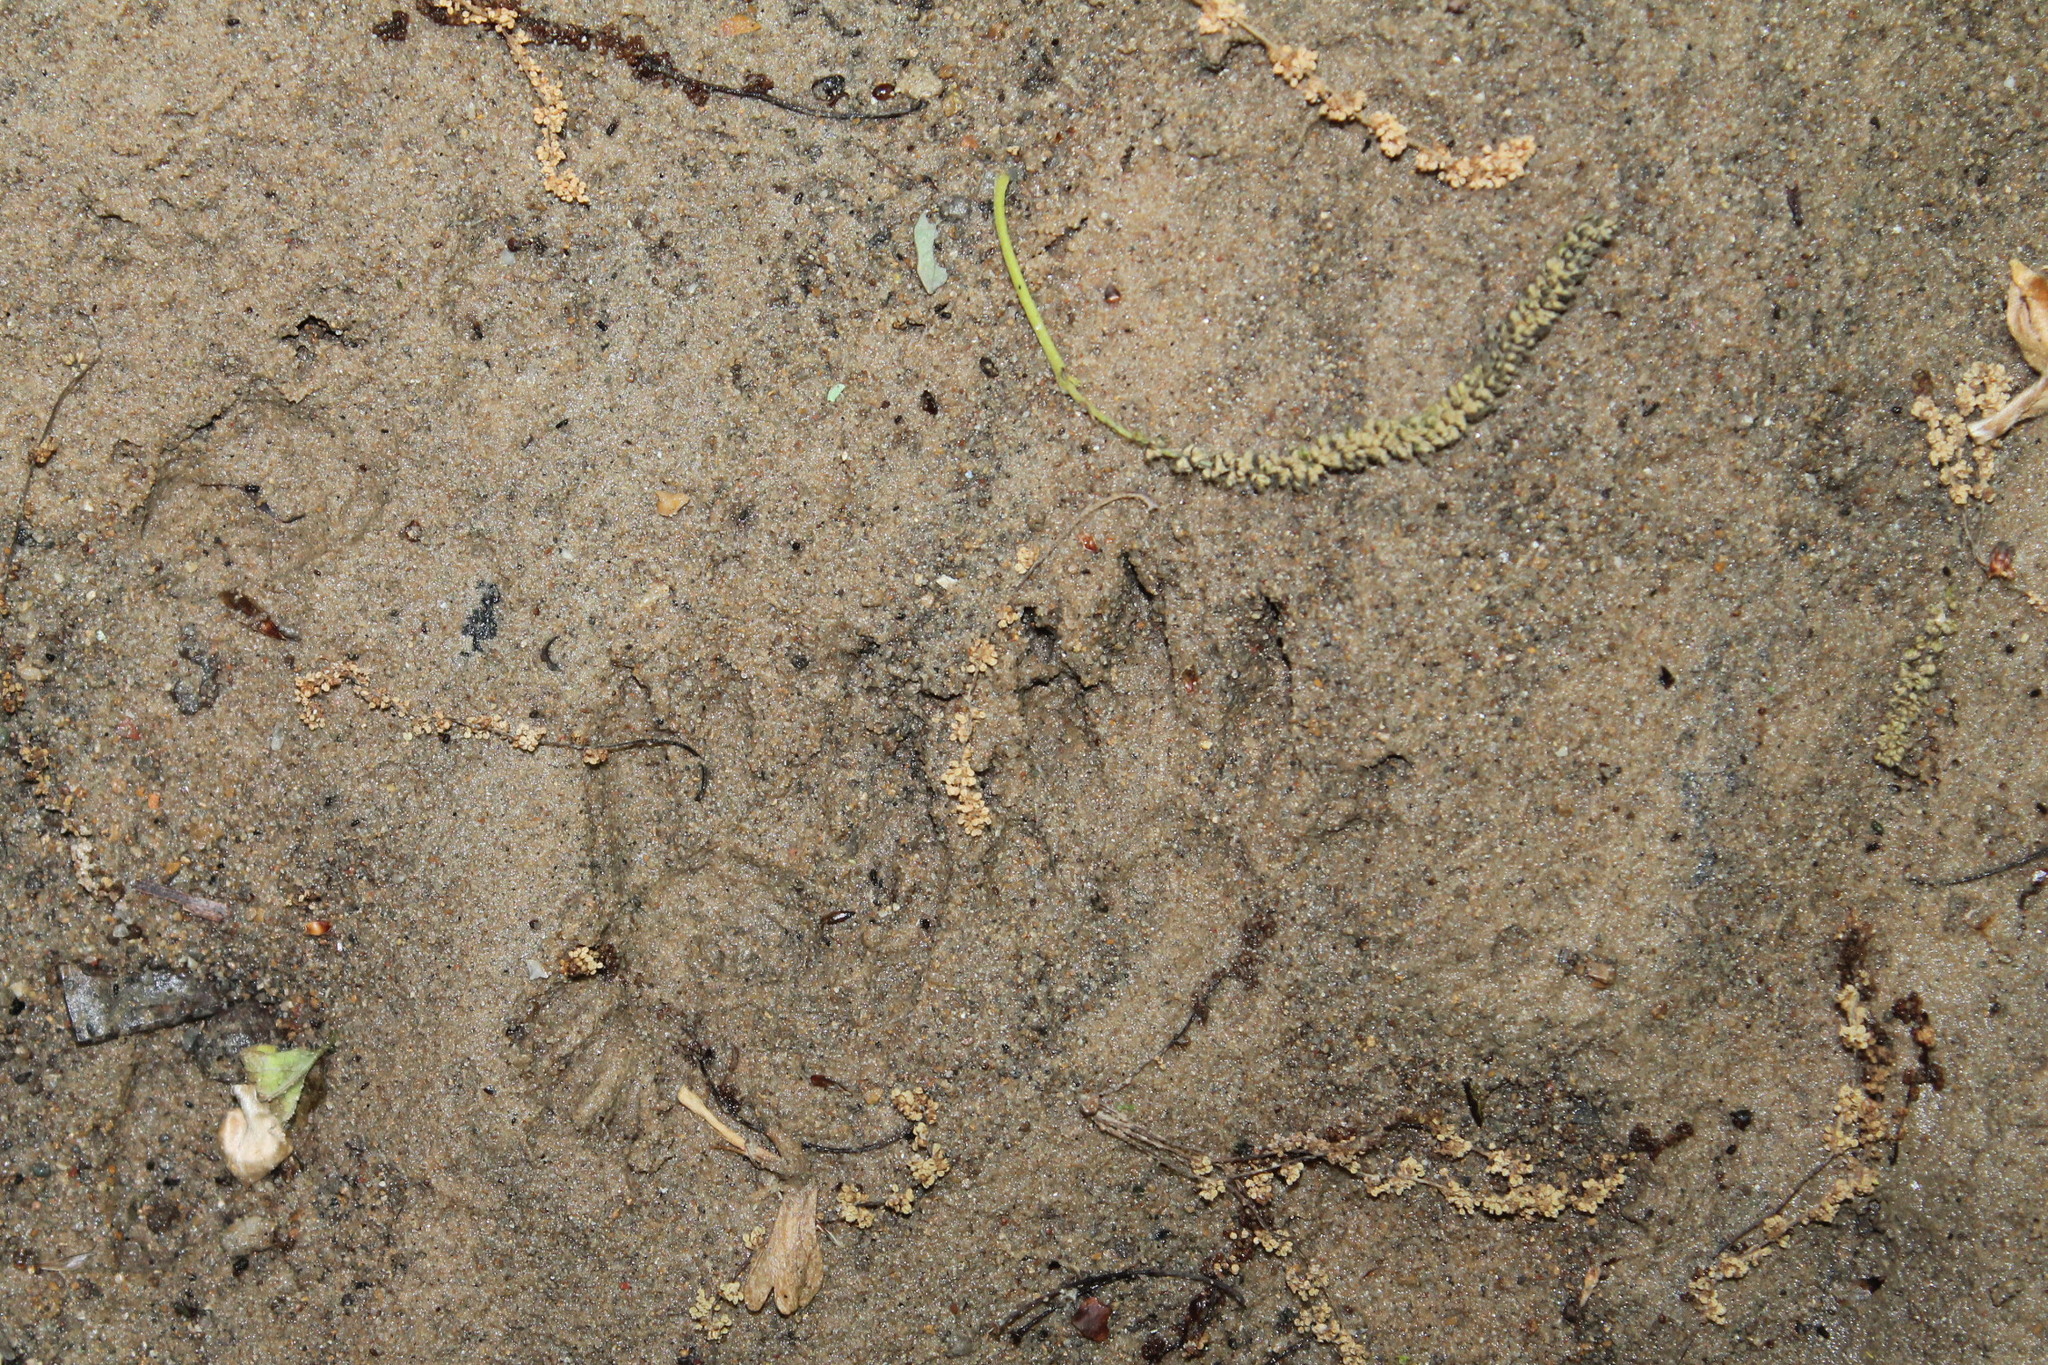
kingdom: Animalia
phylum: Chordata
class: Mammalia
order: Carnivora
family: Procyonidae
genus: Procyon
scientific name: Procyon lotor
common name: Raccoon
